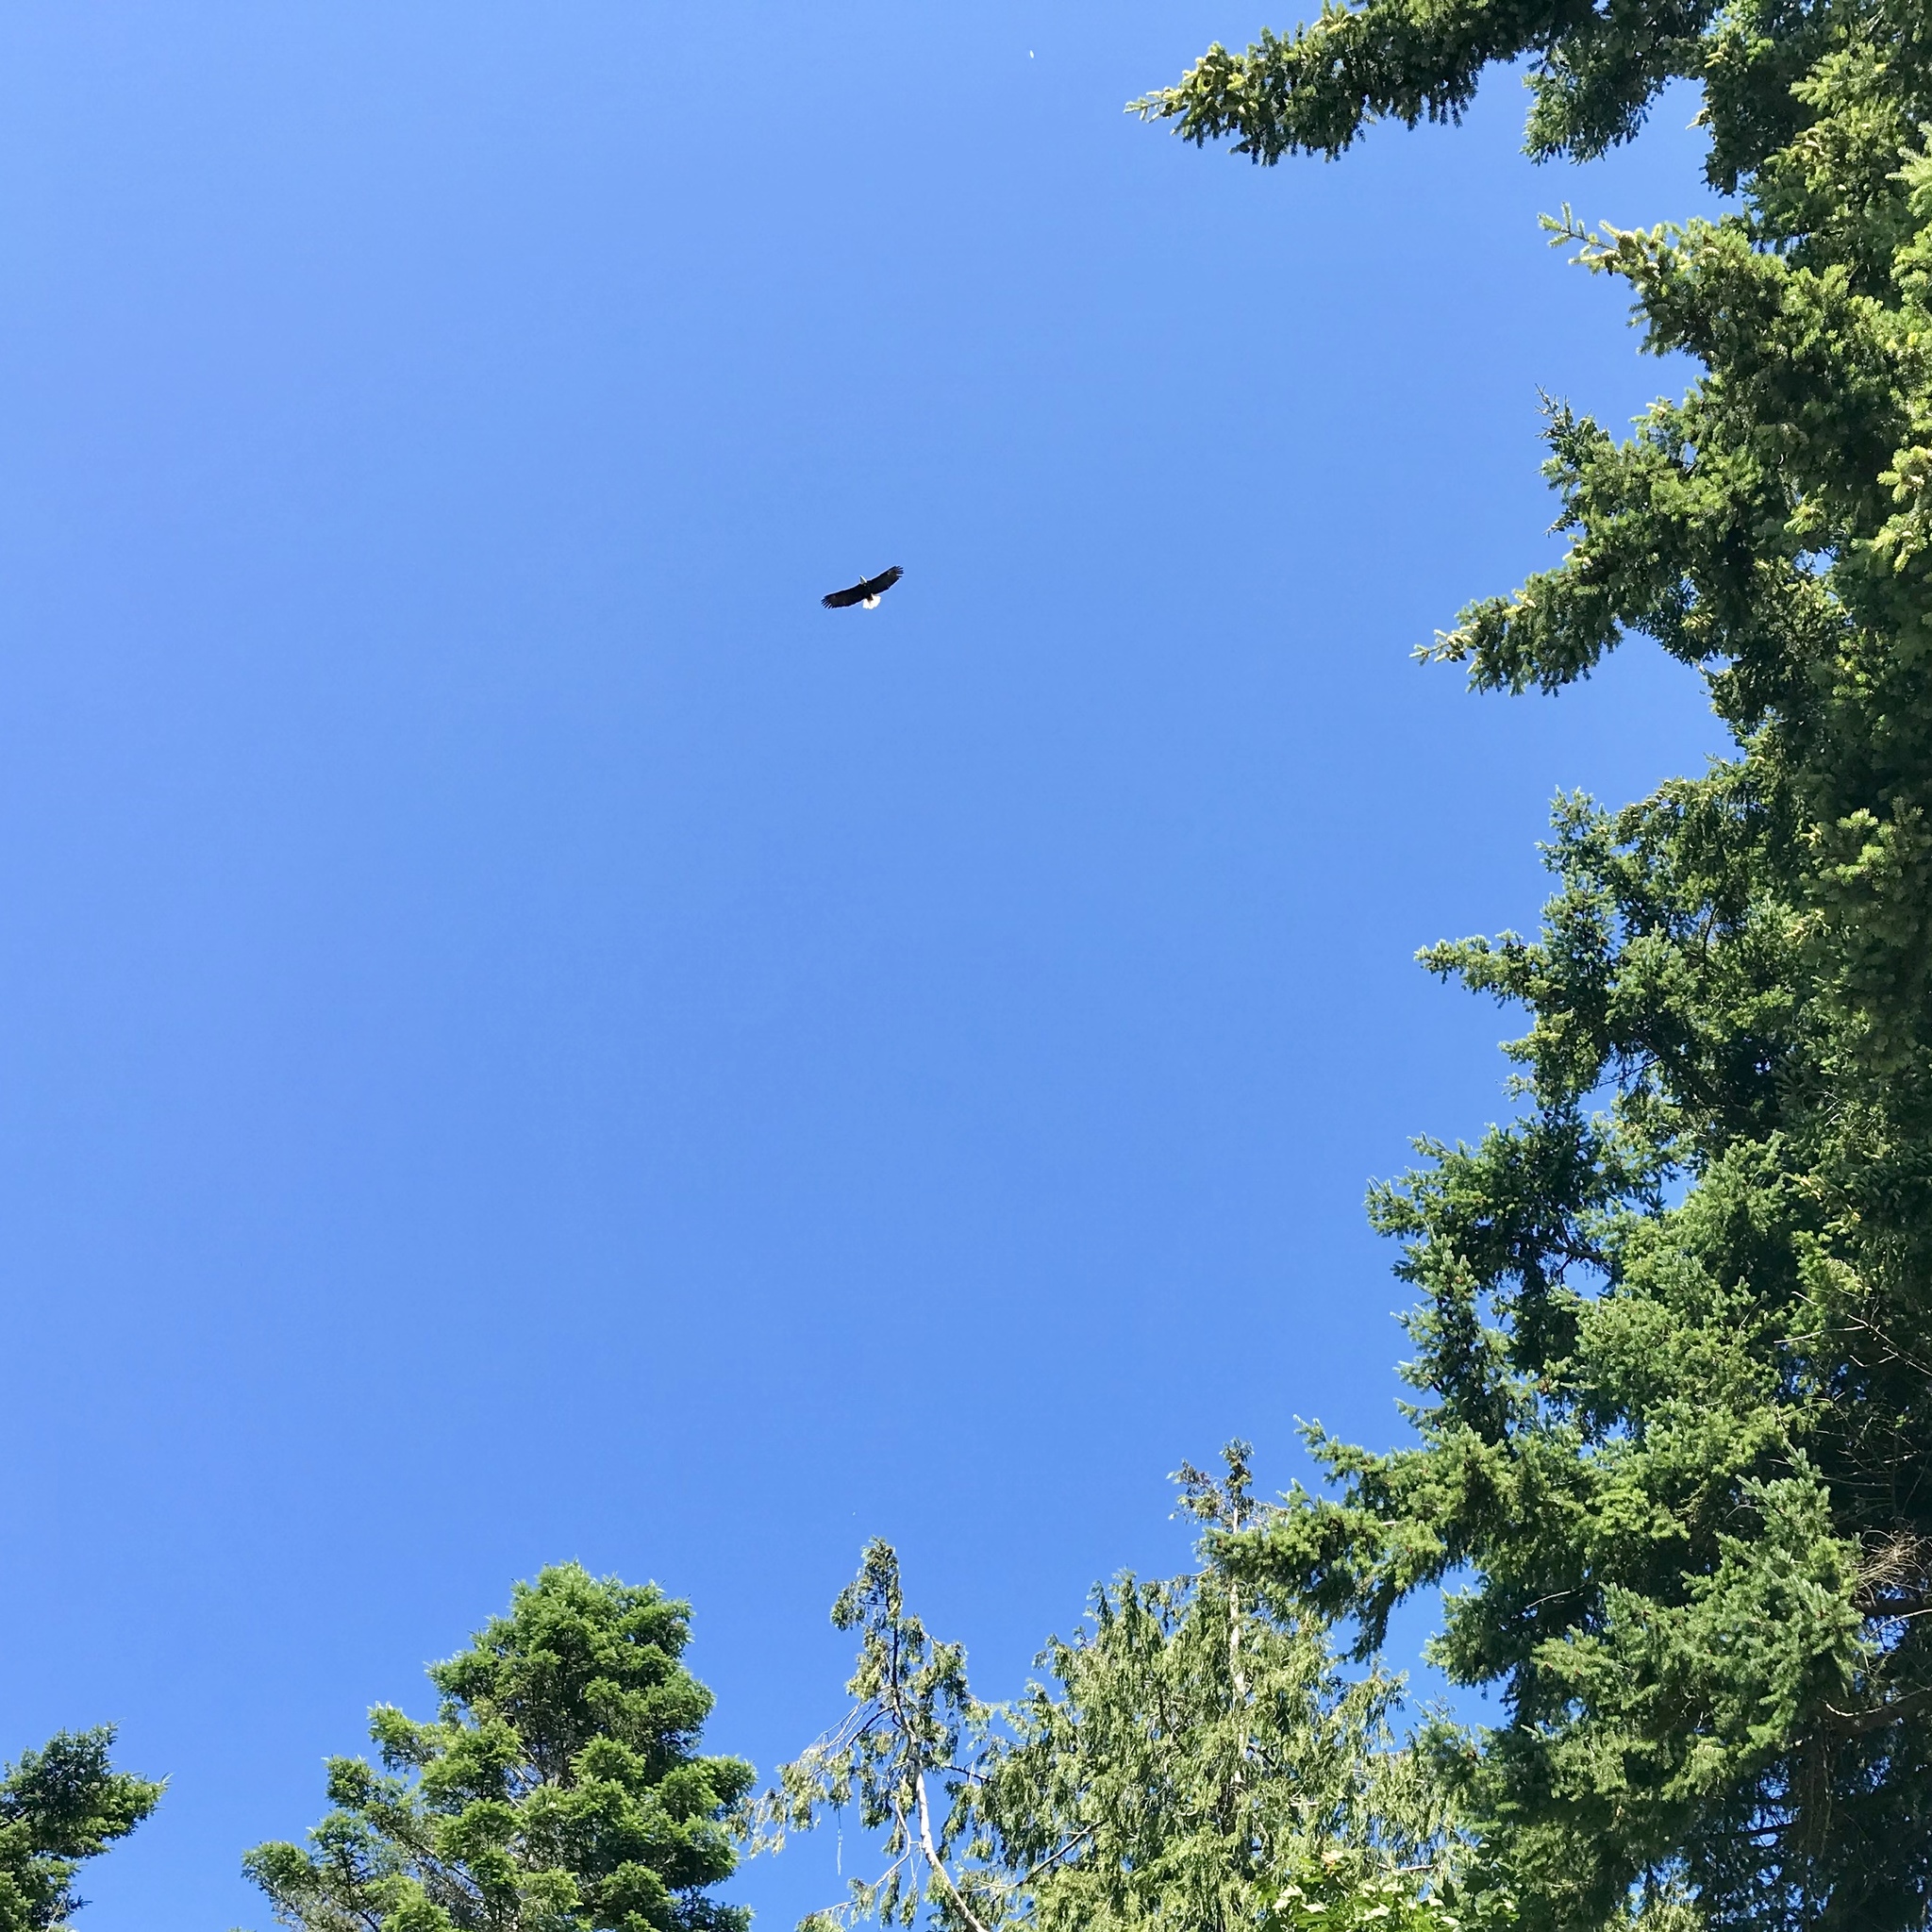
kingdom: Animalia
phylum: Chordata
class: Aves
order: Accipitriformes
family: Accipitridae
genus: Haliaeetus
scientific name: Haliaeetus leucocephalus
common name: Bald eagle
